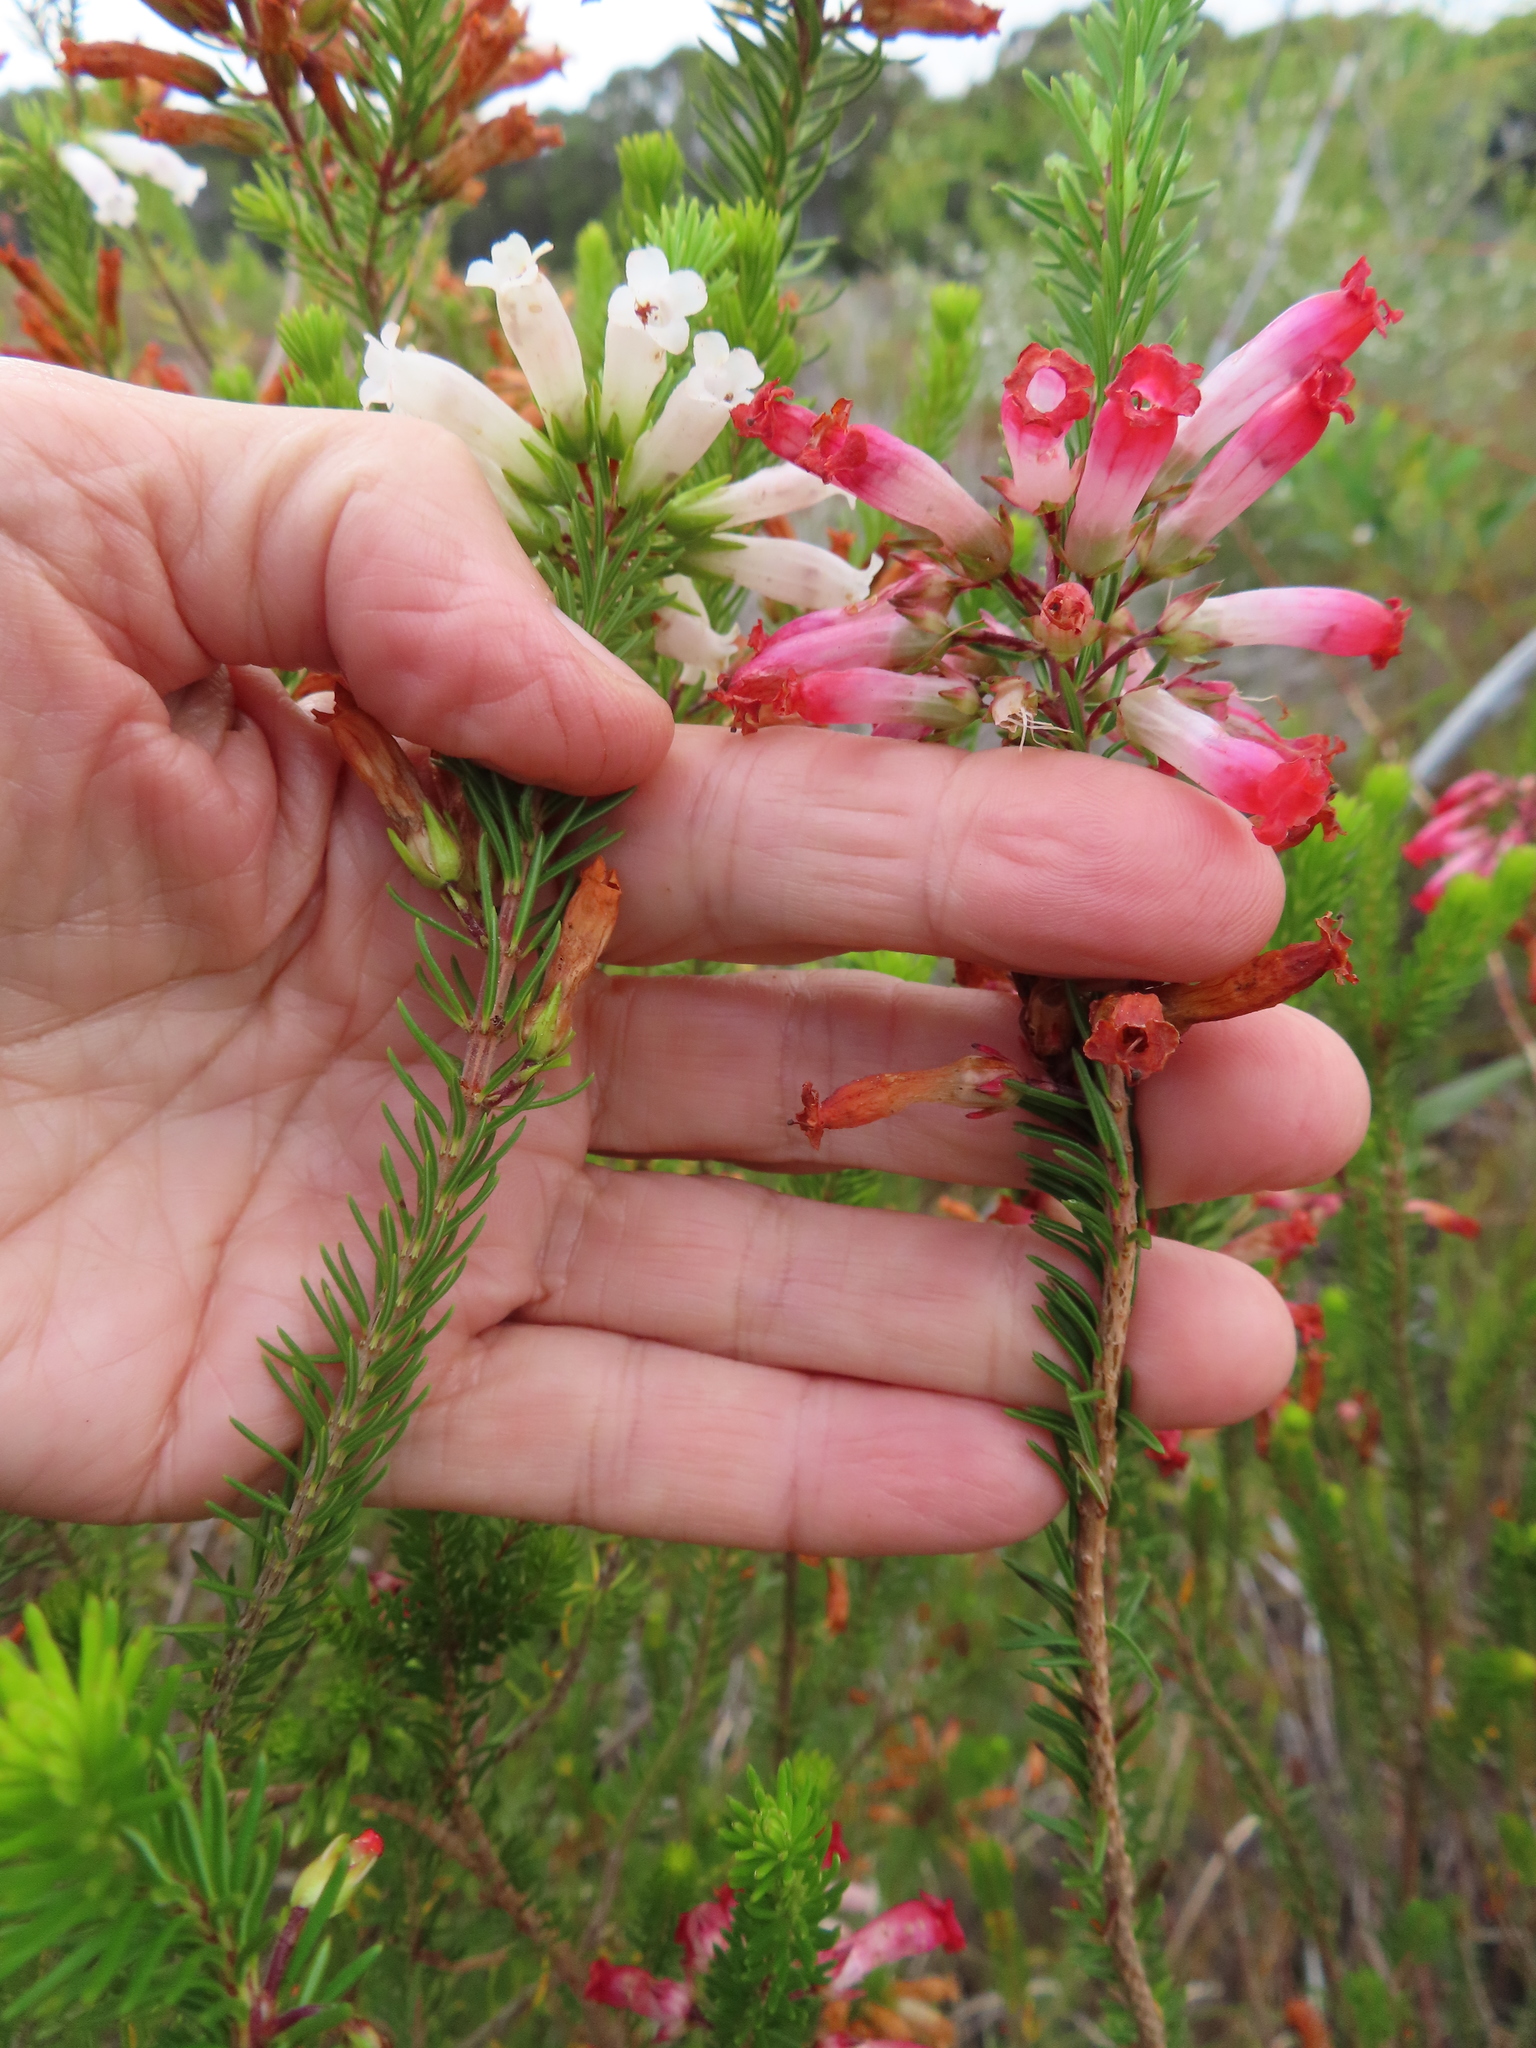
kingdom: Plantae
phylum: Tracheophyta
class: Magnoliopsida
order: Ericales
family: Ericaceae
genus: Erica
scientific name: Erica regia
